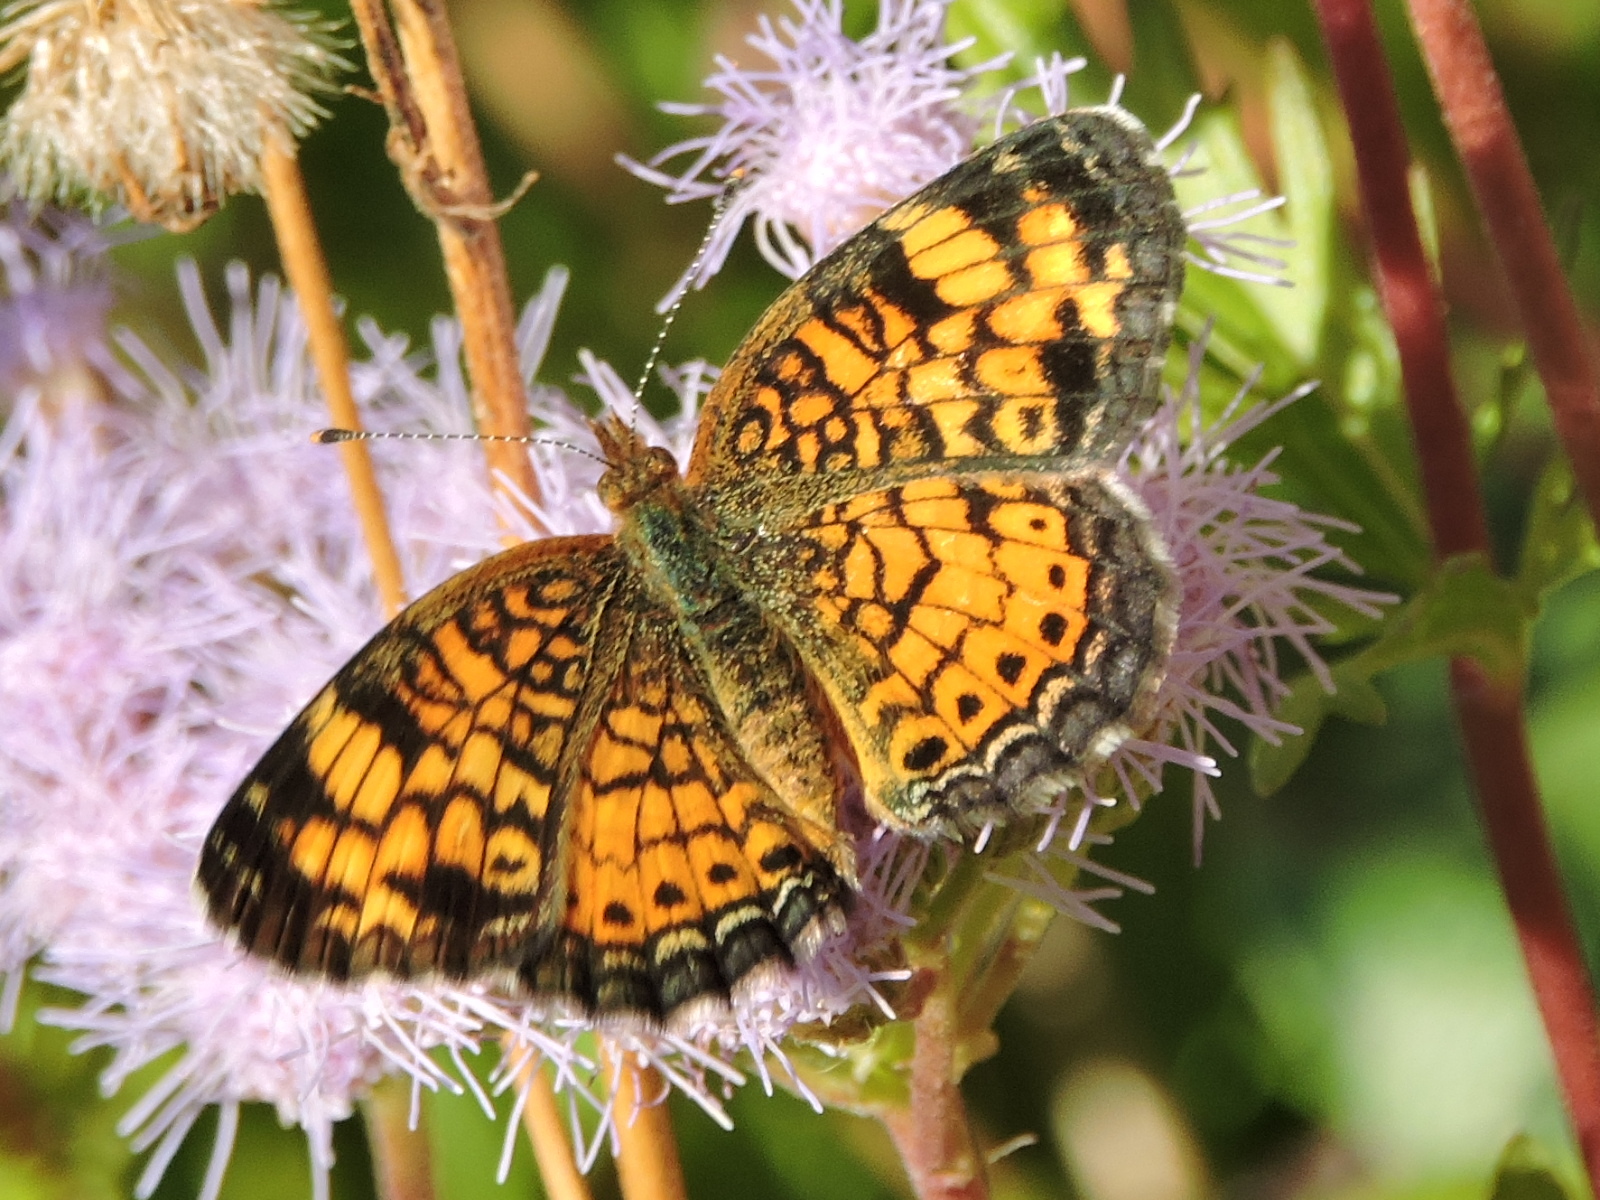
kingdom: Animalia
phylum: Arthropoda
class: Insecta
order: Lepidoptera
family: Nymphalidae
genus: Phyciodes
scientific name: Phyciodes tharos
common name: Pearl crescent
